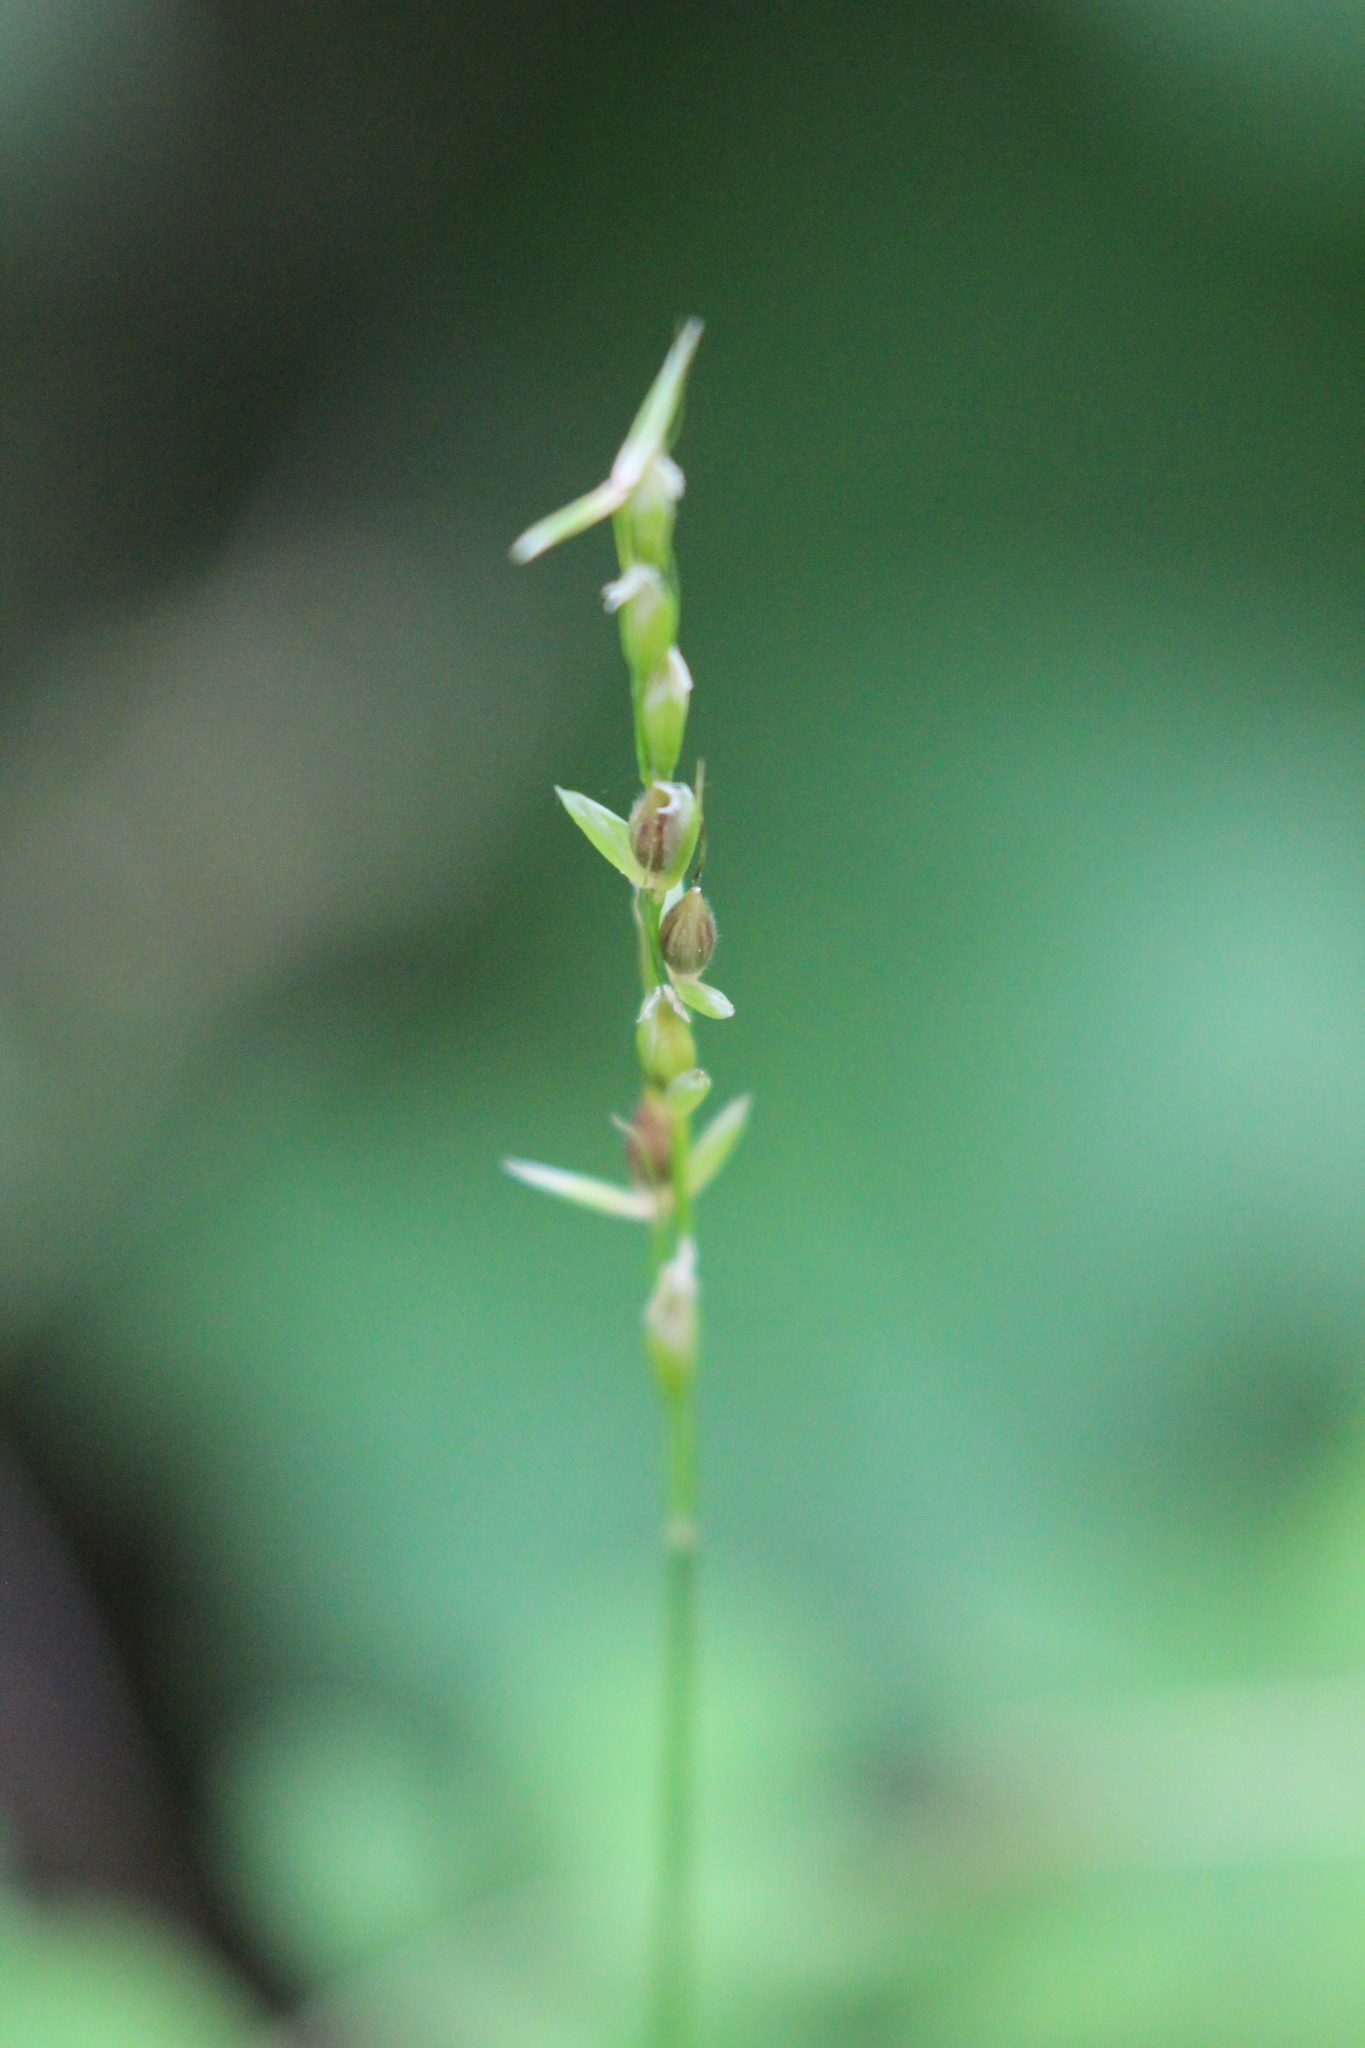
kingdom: Plantae
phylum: Tracheophyta
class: Liliopsida
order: Poales
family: Poaceae
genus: Oryzopsis
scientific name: Oryzopsis asperifolia
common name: Rough-leaved mountain rice
